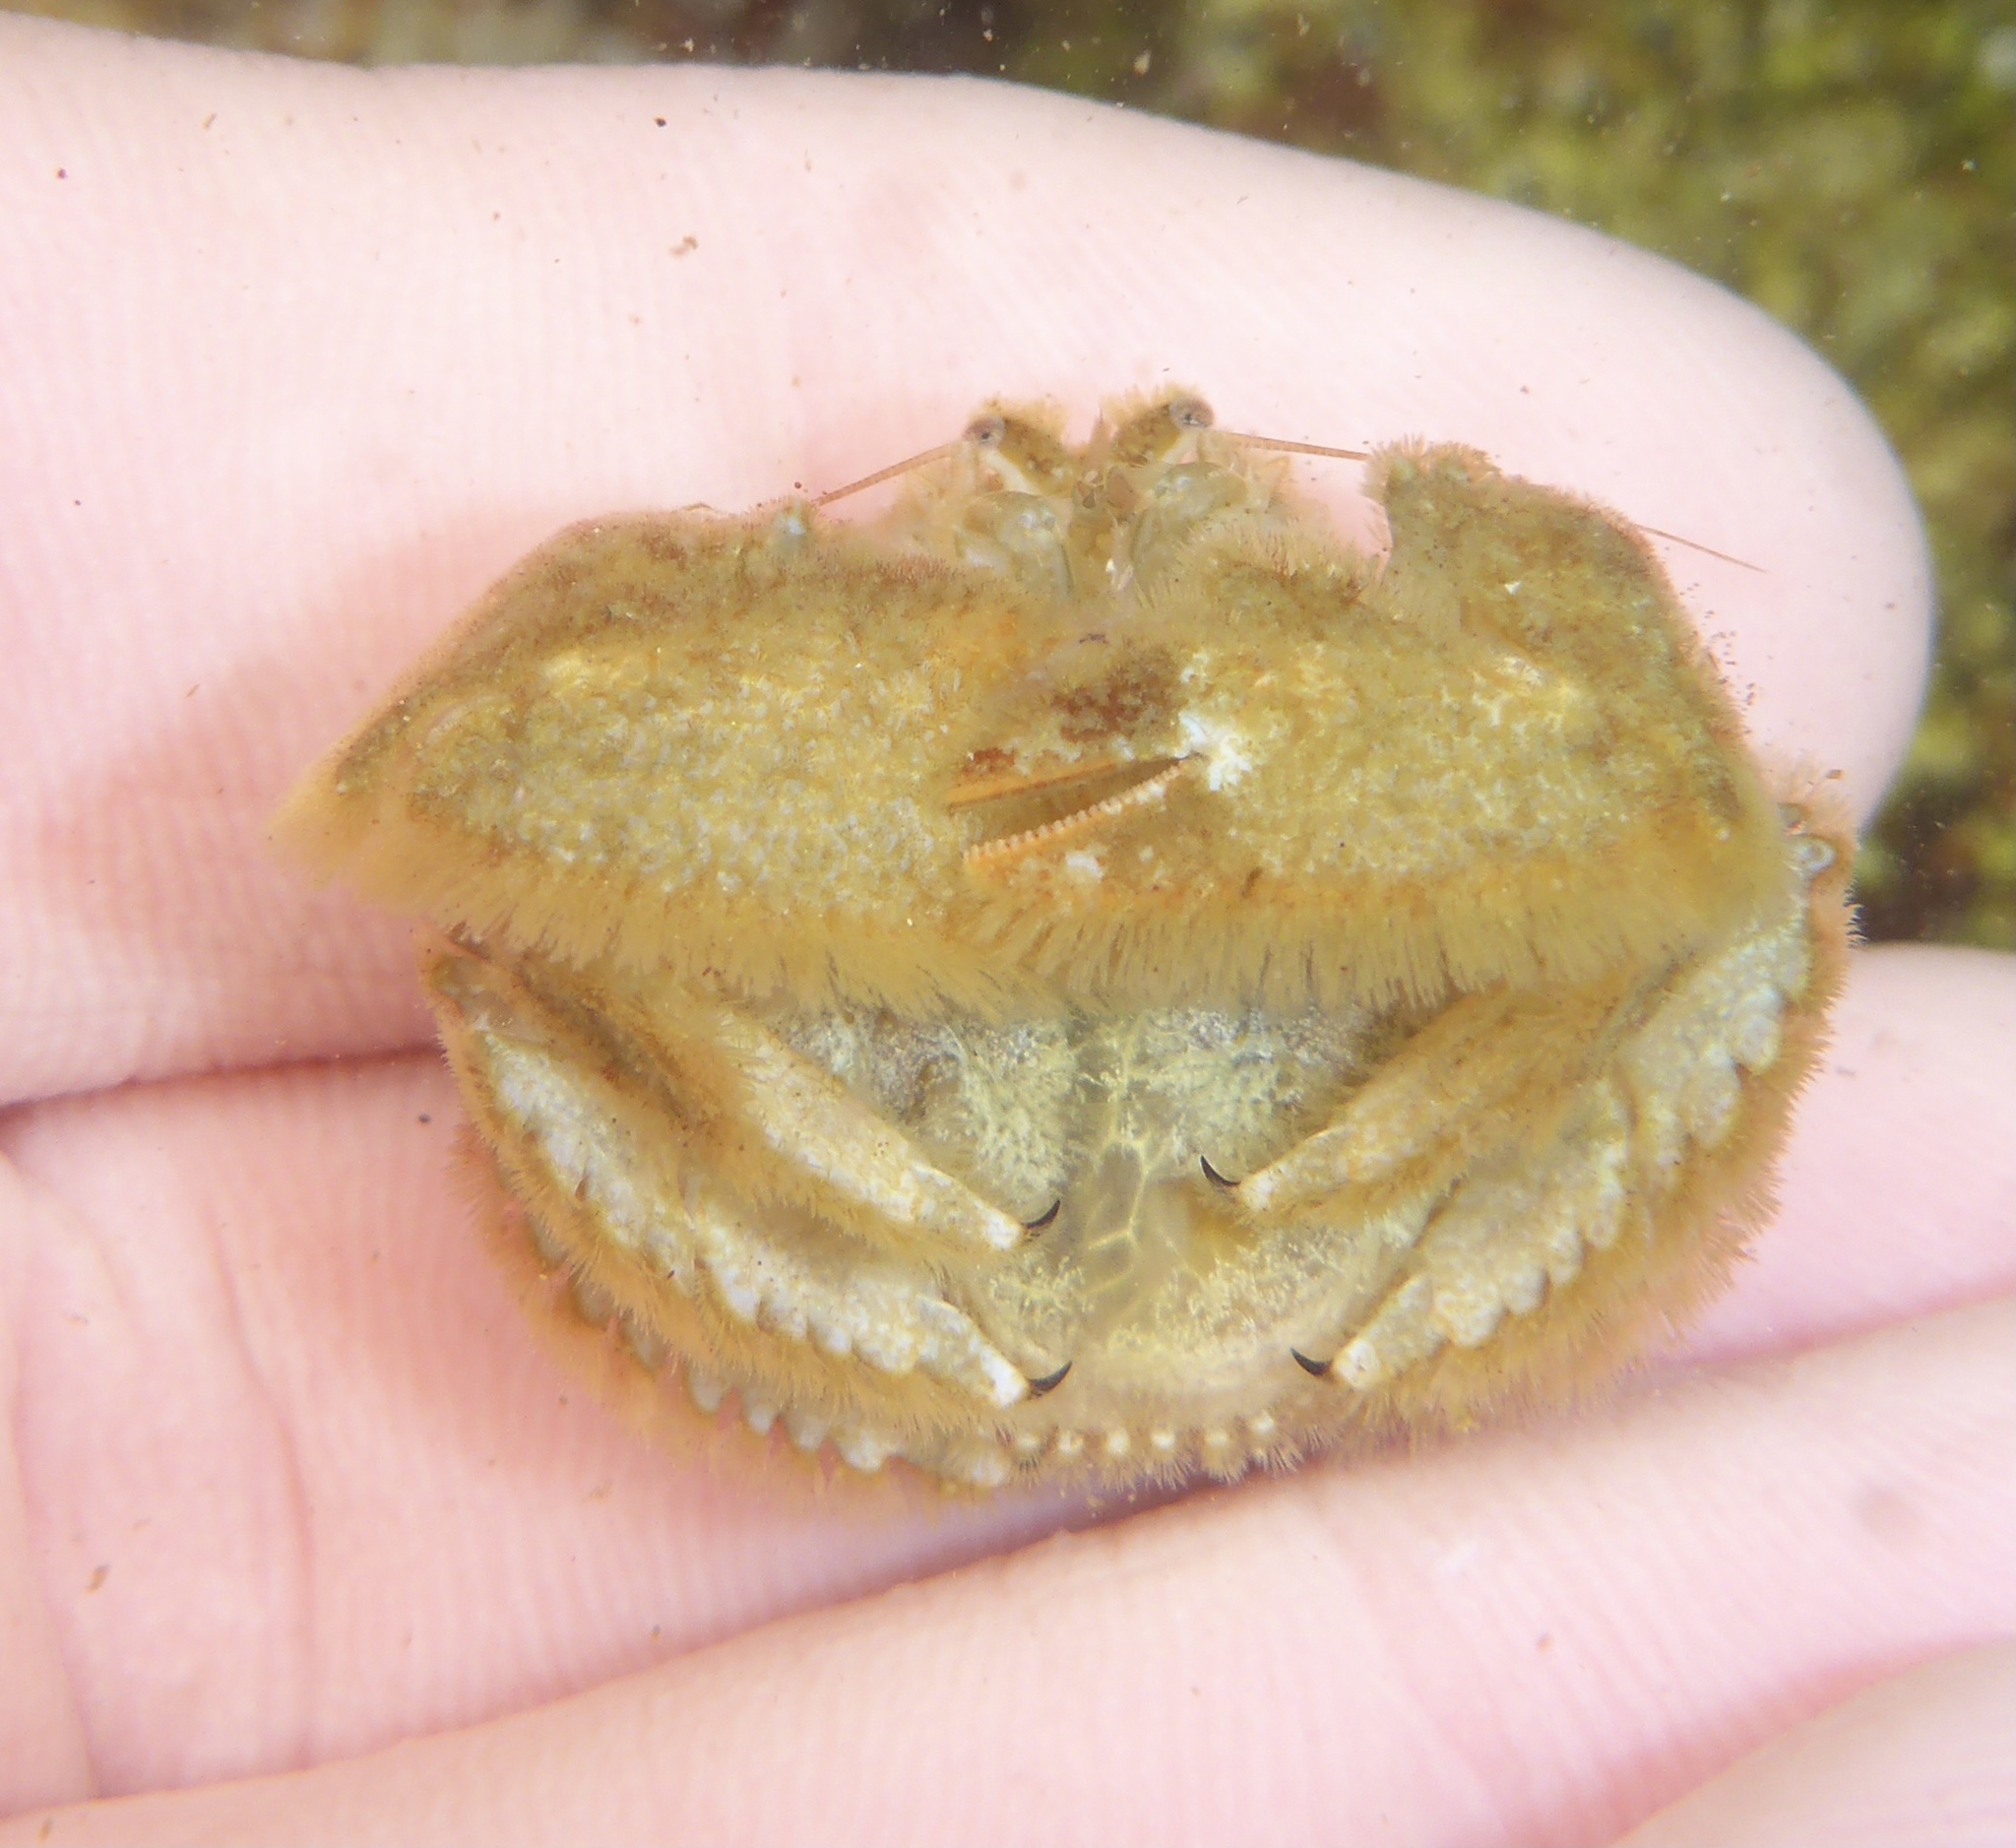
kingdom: Animalia
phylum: Arthropoda
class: Malacostraca
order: Decapoda
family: Hapalogastridae
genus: Hapalogaster
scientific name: Hapalogaster cavicauda
